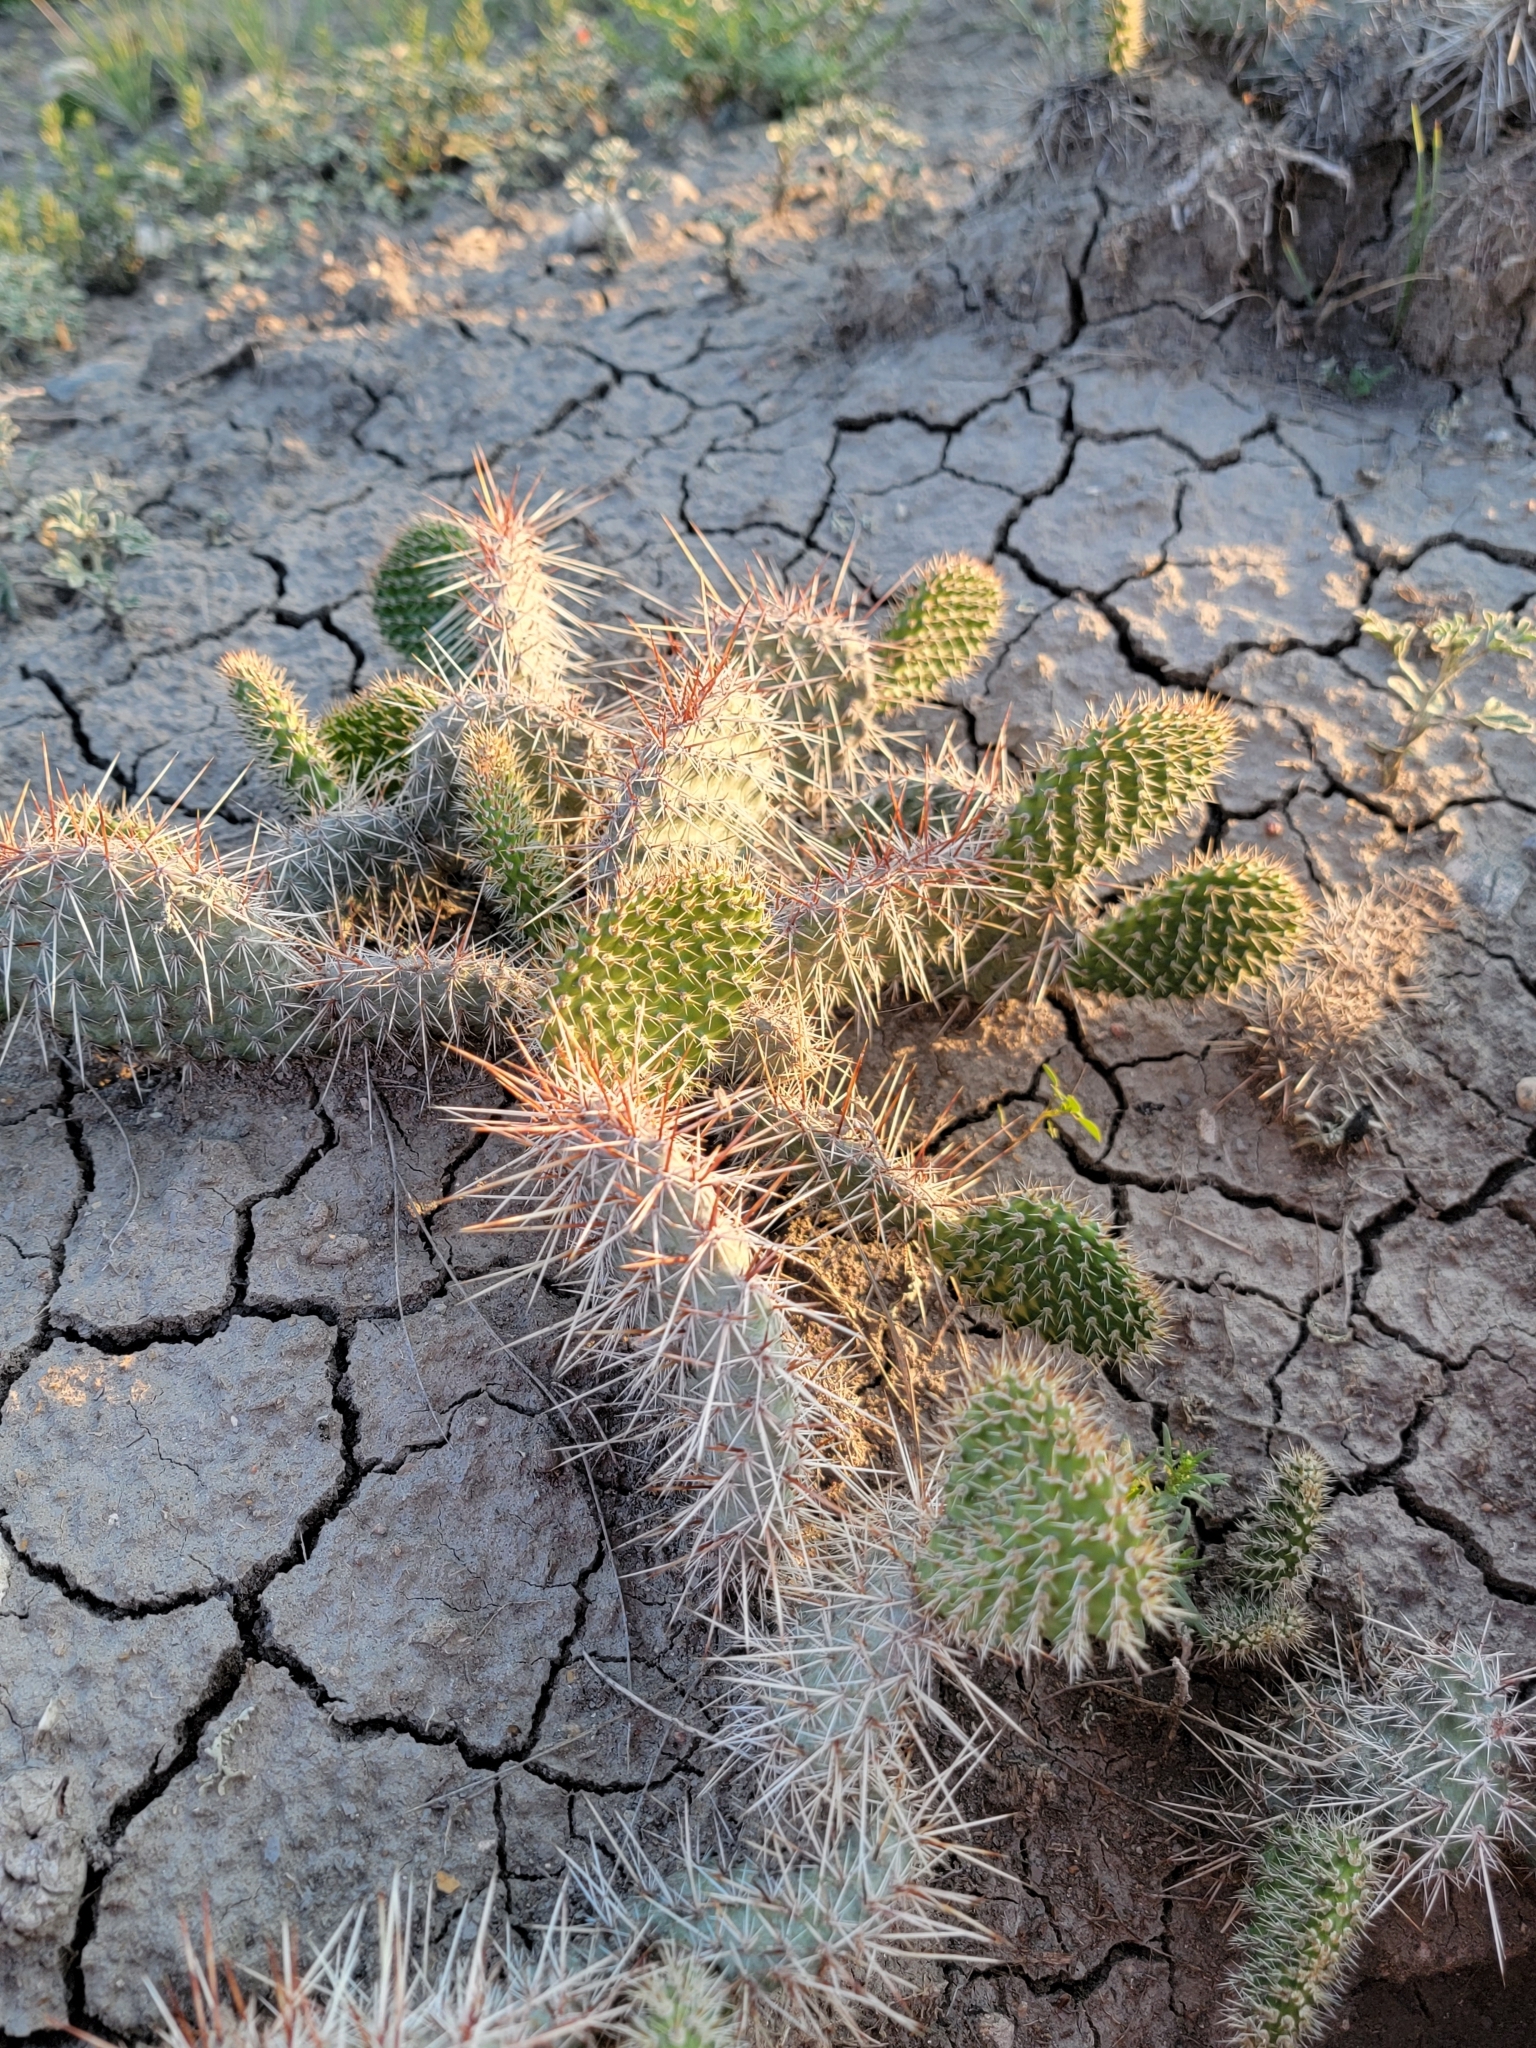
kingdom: Plantae
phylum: Tracheophyta
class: Magnoliopsida
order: Caryophyllales
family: Cactaceae
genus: Opuntia
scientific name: Opuntia polyacantha
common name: Plains prickly-pear
